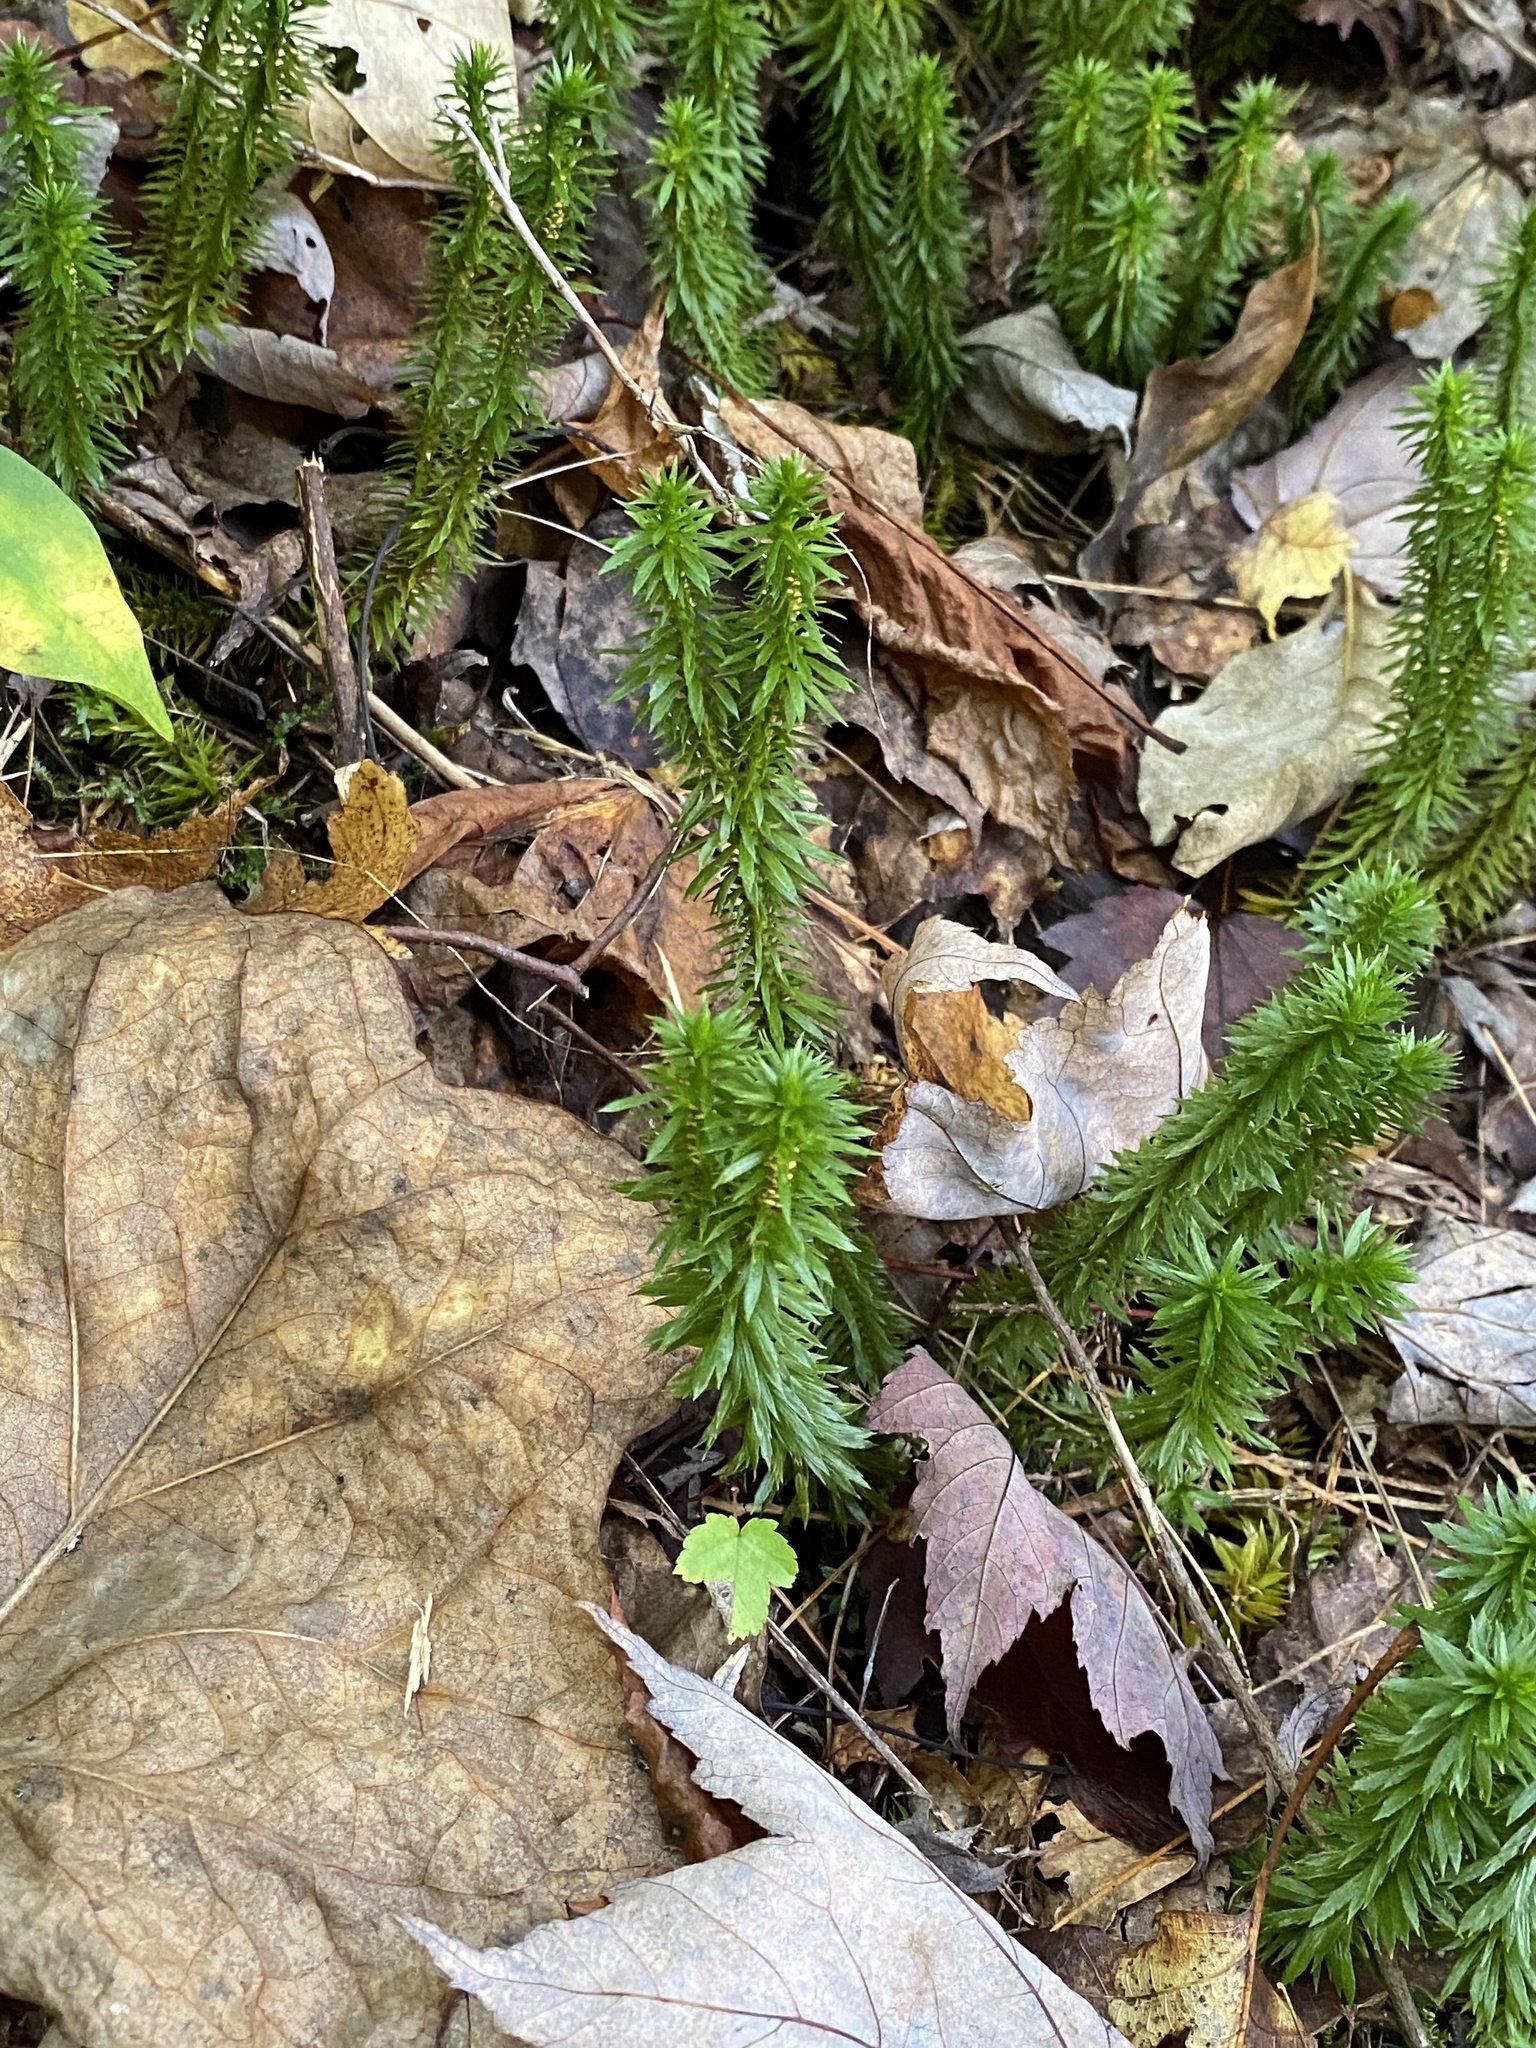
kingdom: Plantae
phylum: Tracheophyta
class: Lycopodiopsida
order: Lycopodiales
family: Lycopodiaceae
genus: Huperzia
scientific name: Huperzia lucidula
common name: Shining clubmoss
